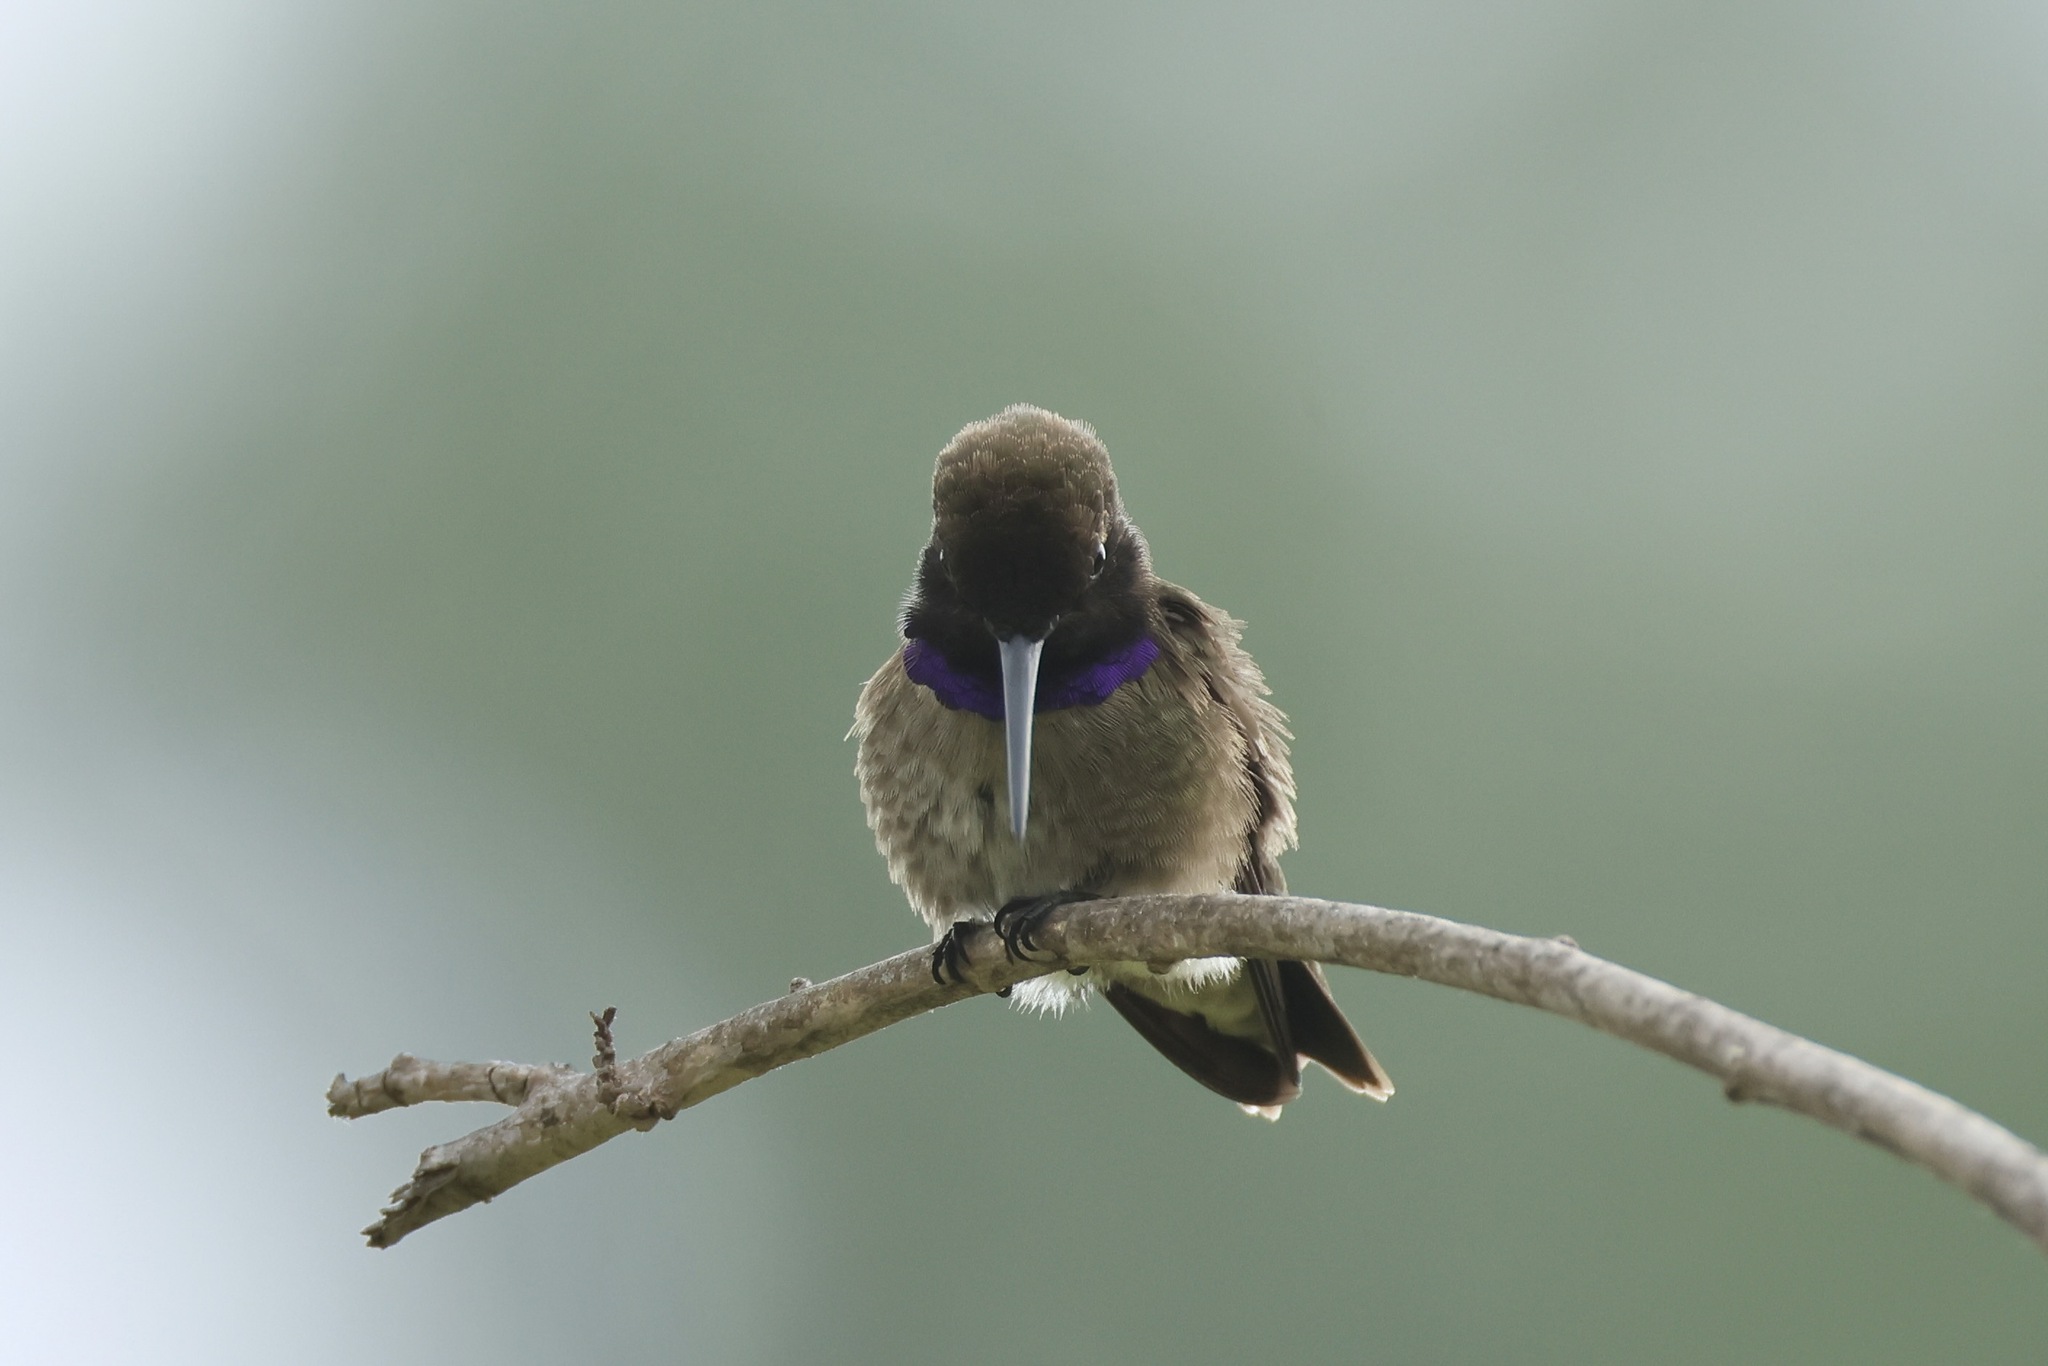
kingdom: Animalia
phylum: Chordata
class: Aves
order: Apodiformes
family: Trochilidae
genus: Archilochus
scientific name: Archilochus alexandri
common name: Black-chinned hummingbird
